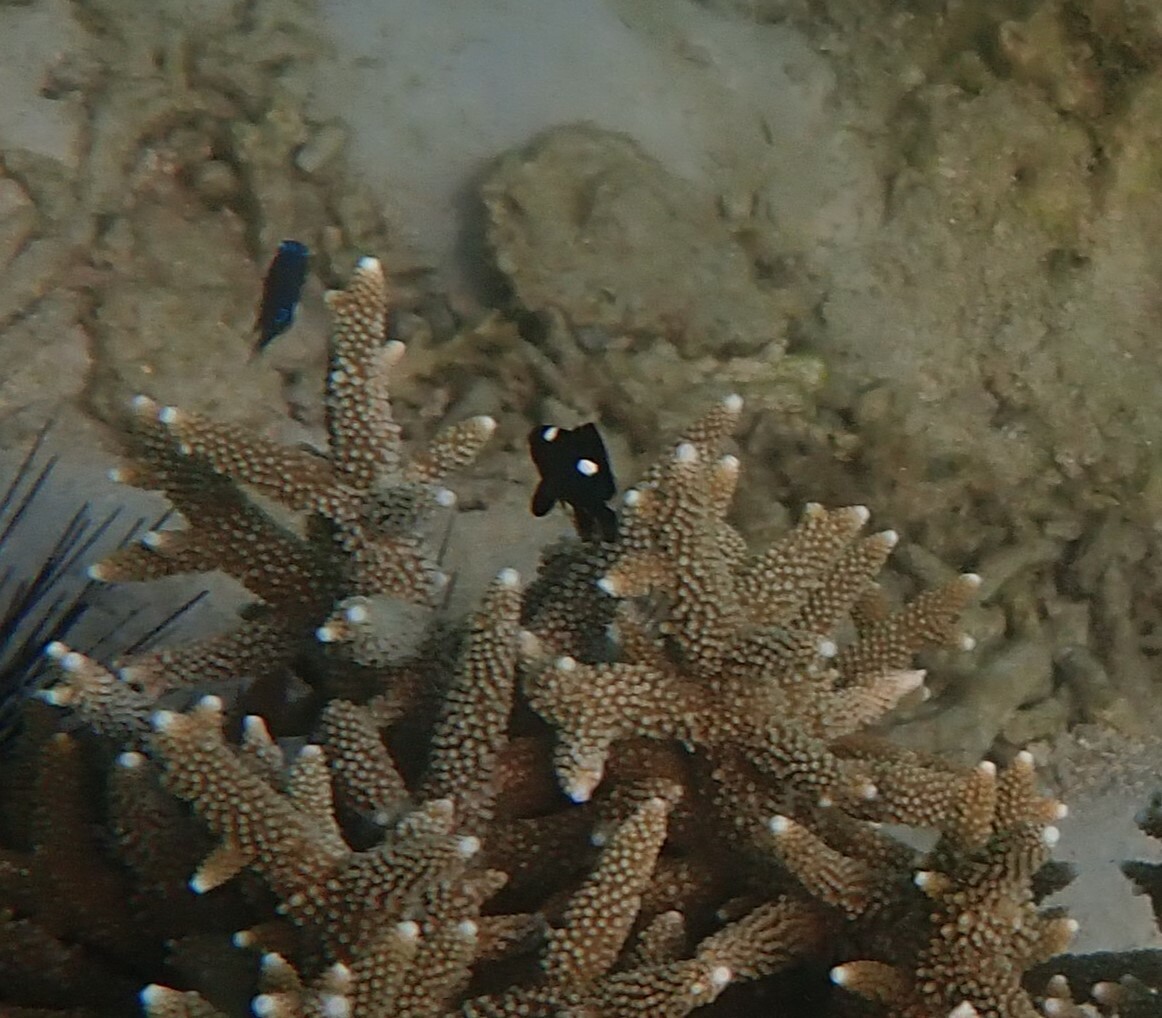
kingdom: Animalia
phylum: Chordata
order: Perciformes
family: Pomacentridae
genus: Dascyllus
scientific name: Dascyllus trimaculatus
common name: Threespot dascyllus
